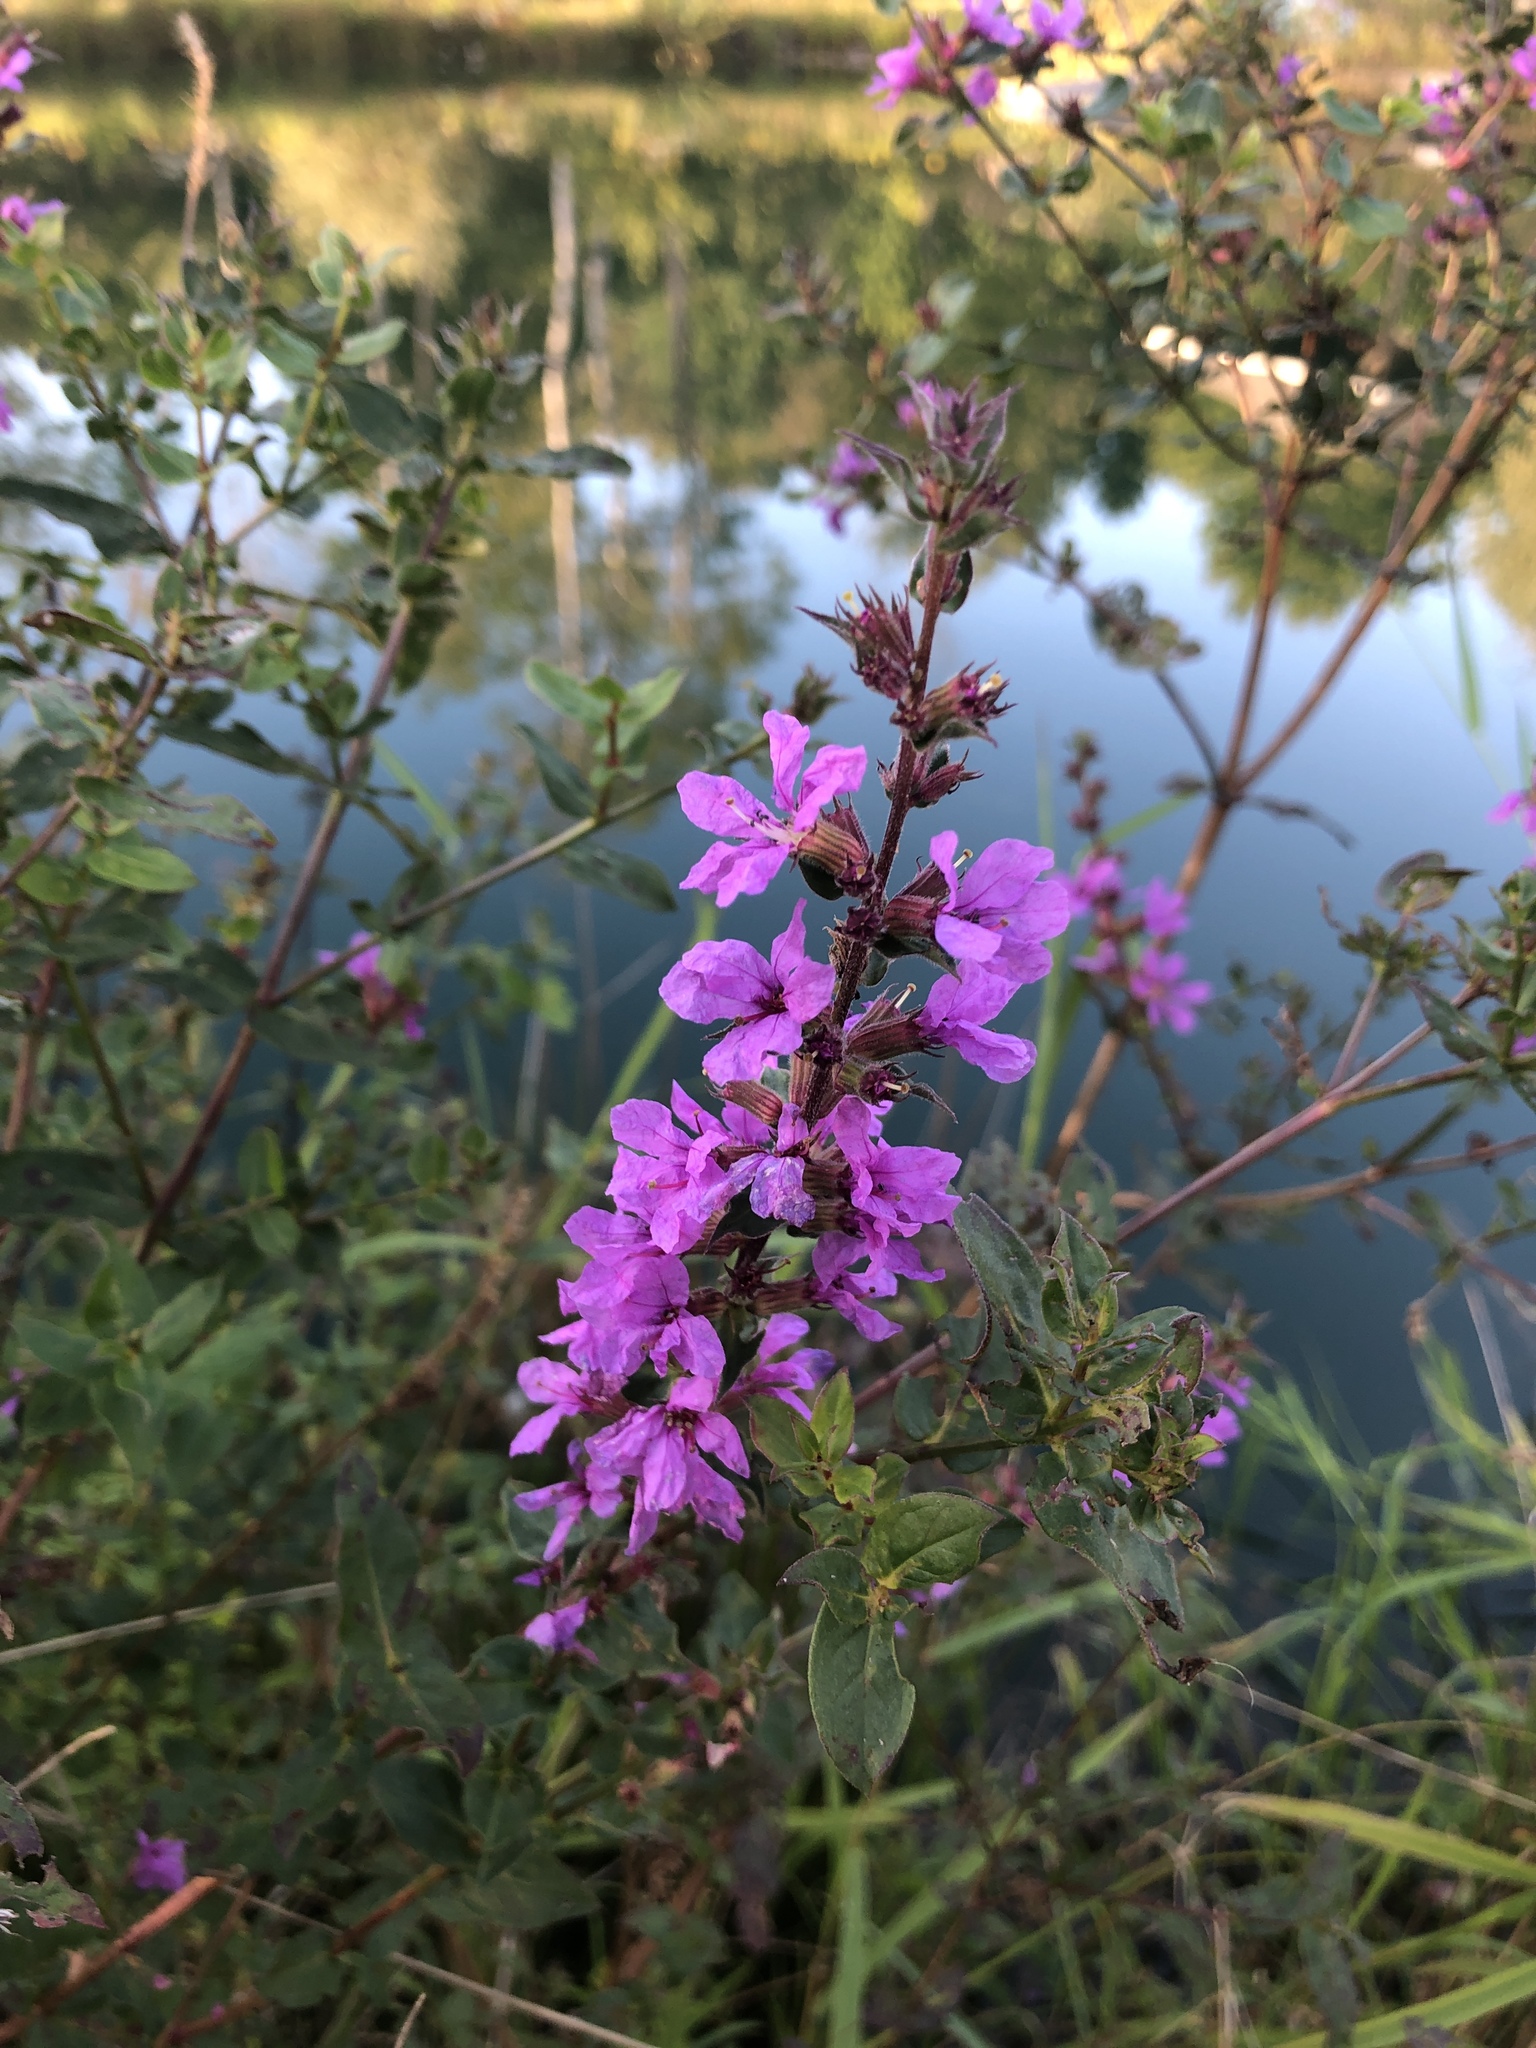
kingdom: Plantae
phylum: Tracheophyta
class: Magnoliopsida
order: Myrtales
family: Lythraceae
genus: Lythrum
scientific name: Lythrum salicaria
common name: Purple loosestrife
